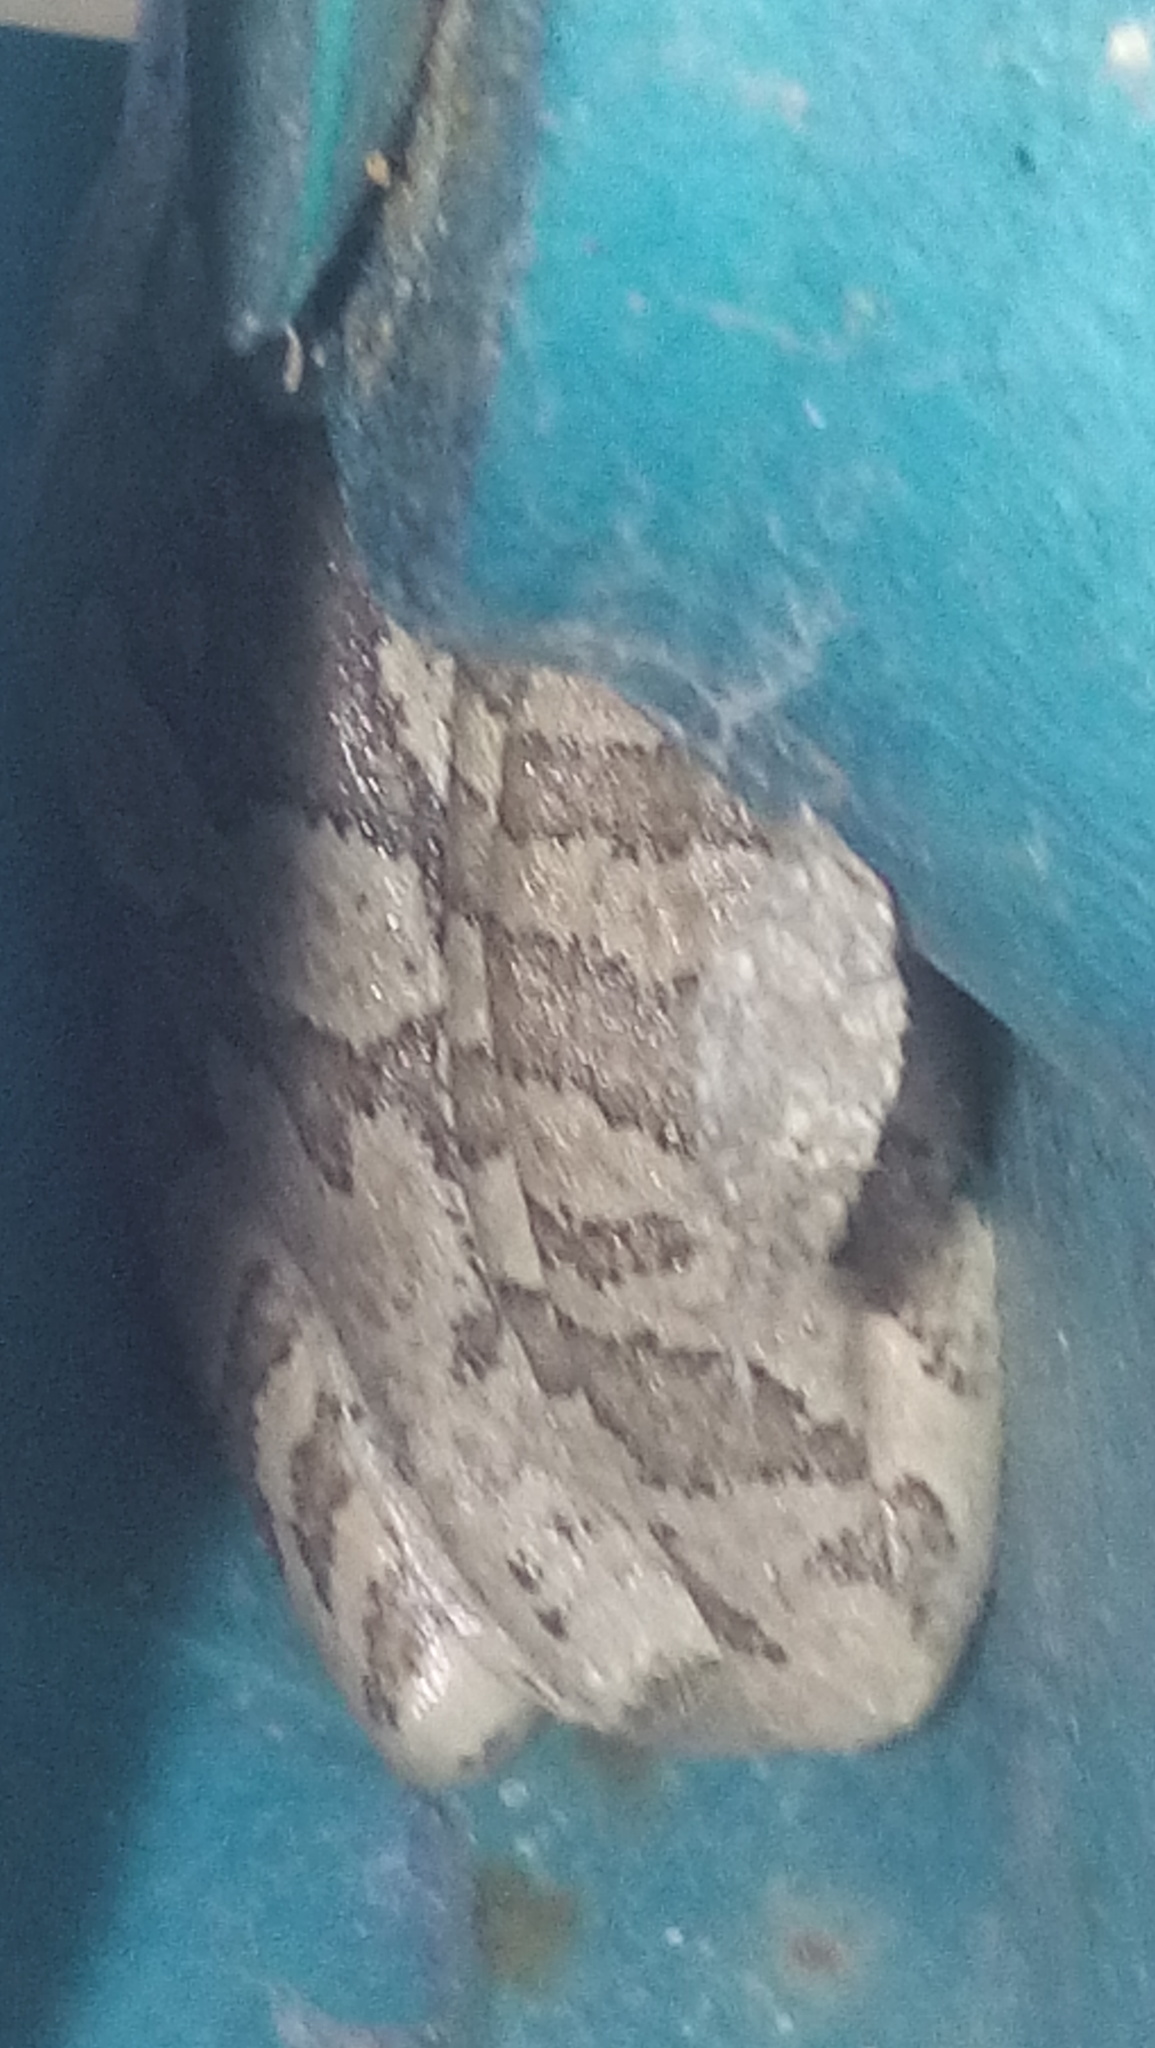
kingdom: Animalia
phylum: Chordata
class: Amphibia
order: Anura
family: Hylidae
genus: Smilisca
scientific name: Smilisca baudinii
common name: Mexican smilisca
